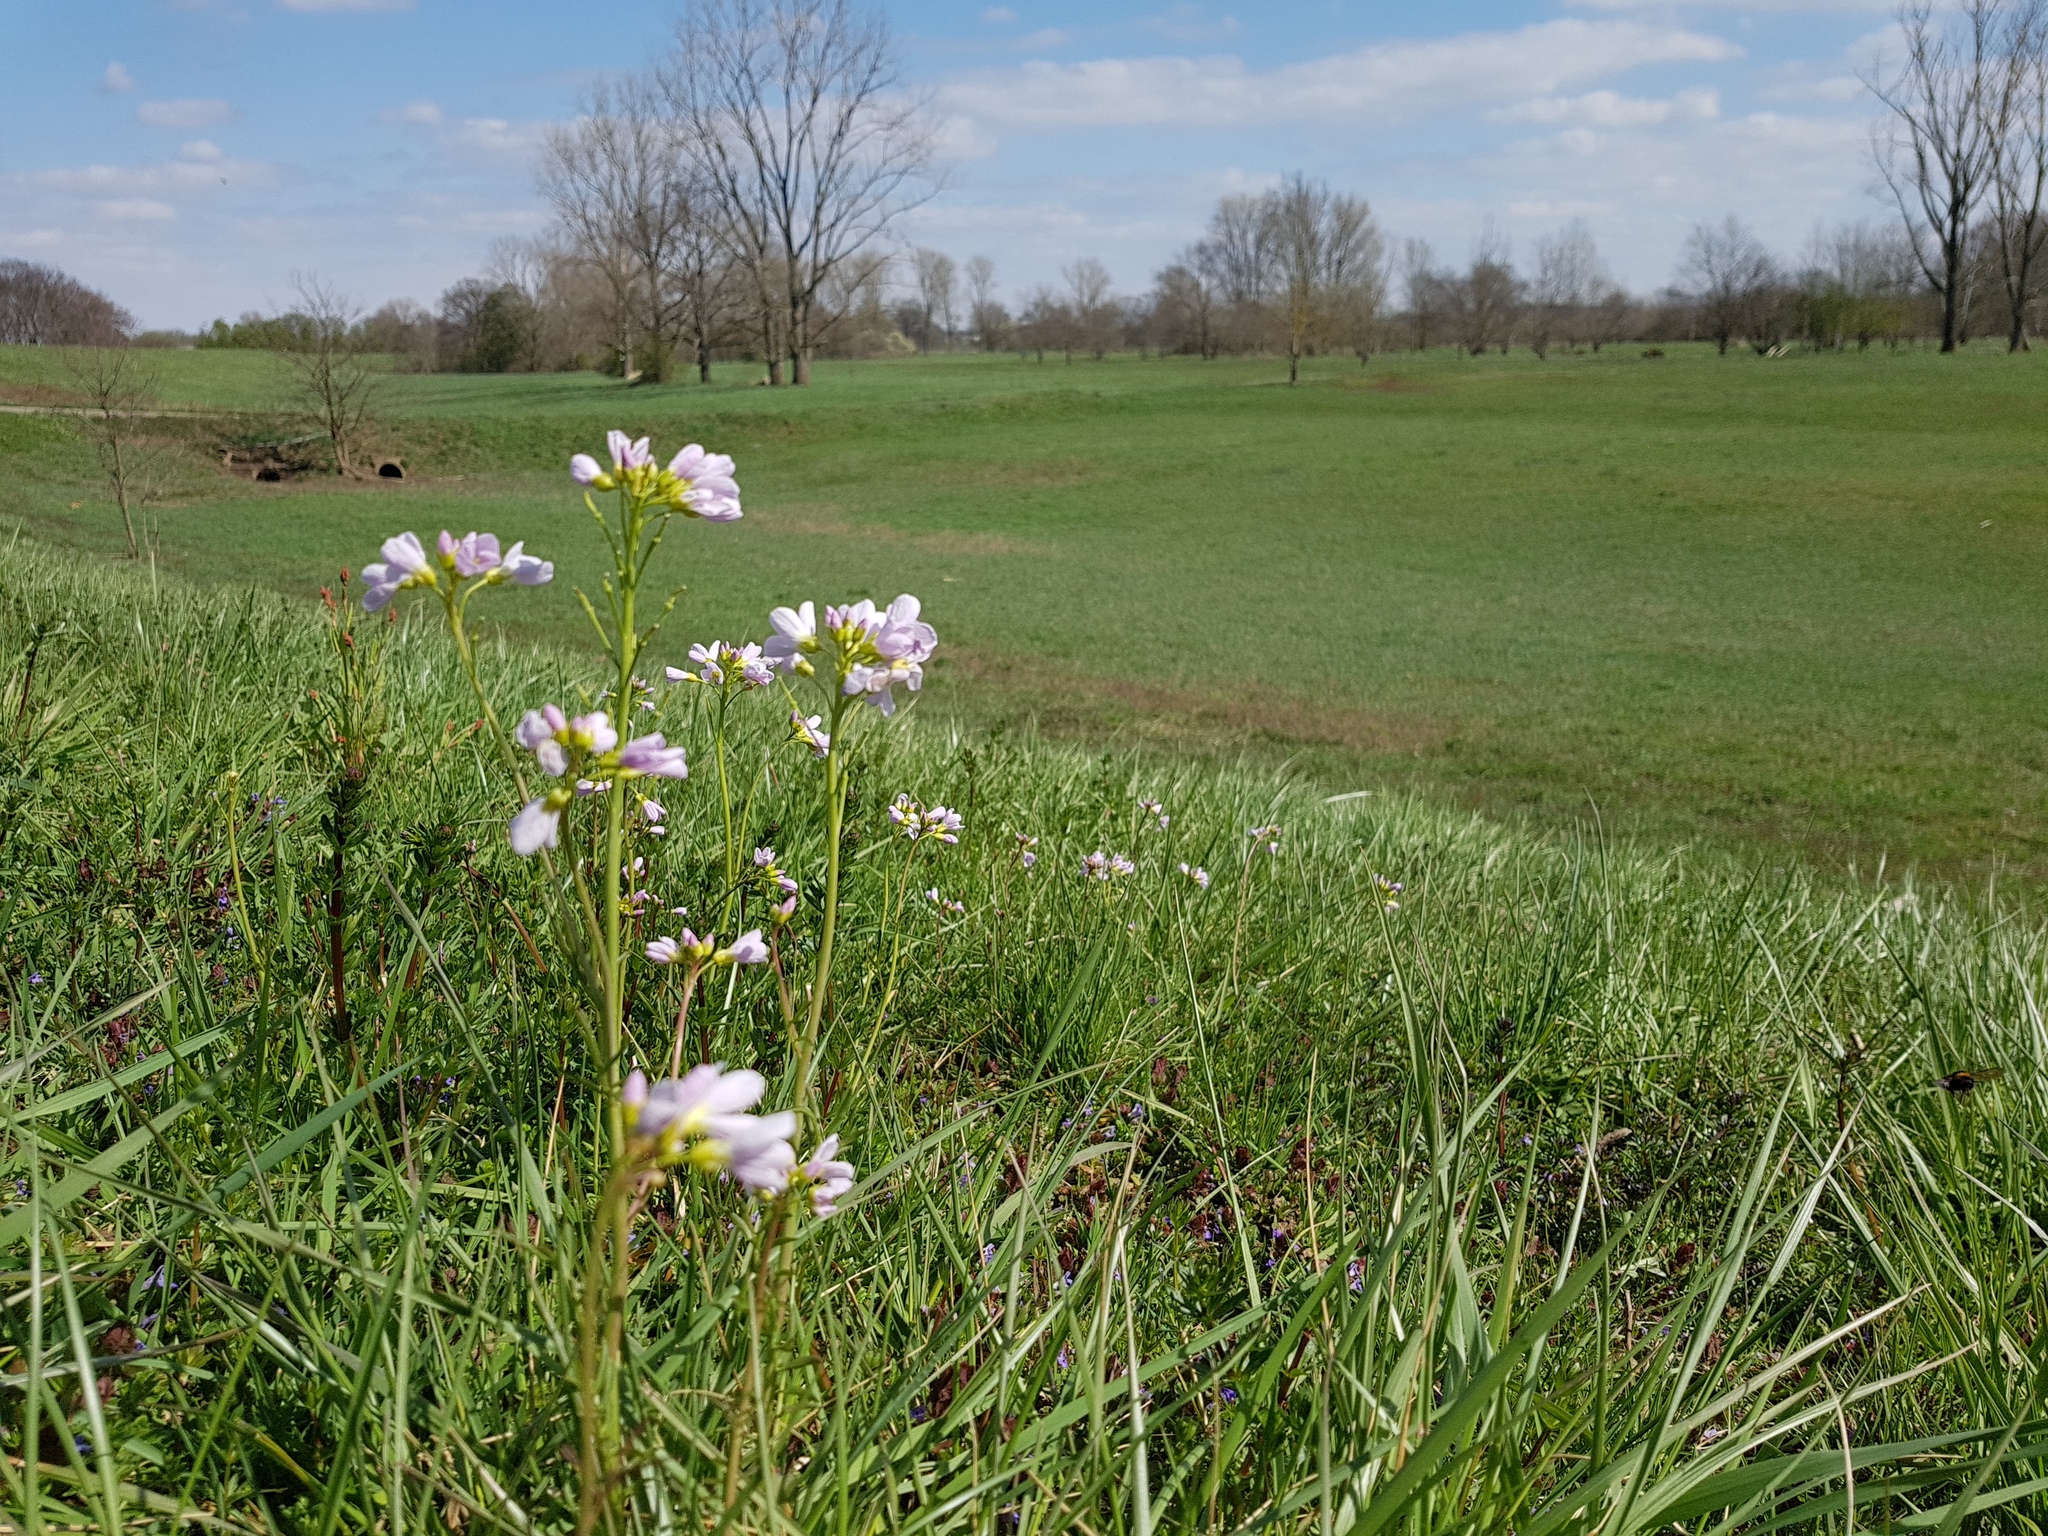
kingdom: Plantae
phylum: Tracheophyta
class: Magnoliopsida
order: Brassicales
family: Brassicaceae
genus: Cardamine
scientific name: Cardamine pratensis
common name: Cuckoo flower
